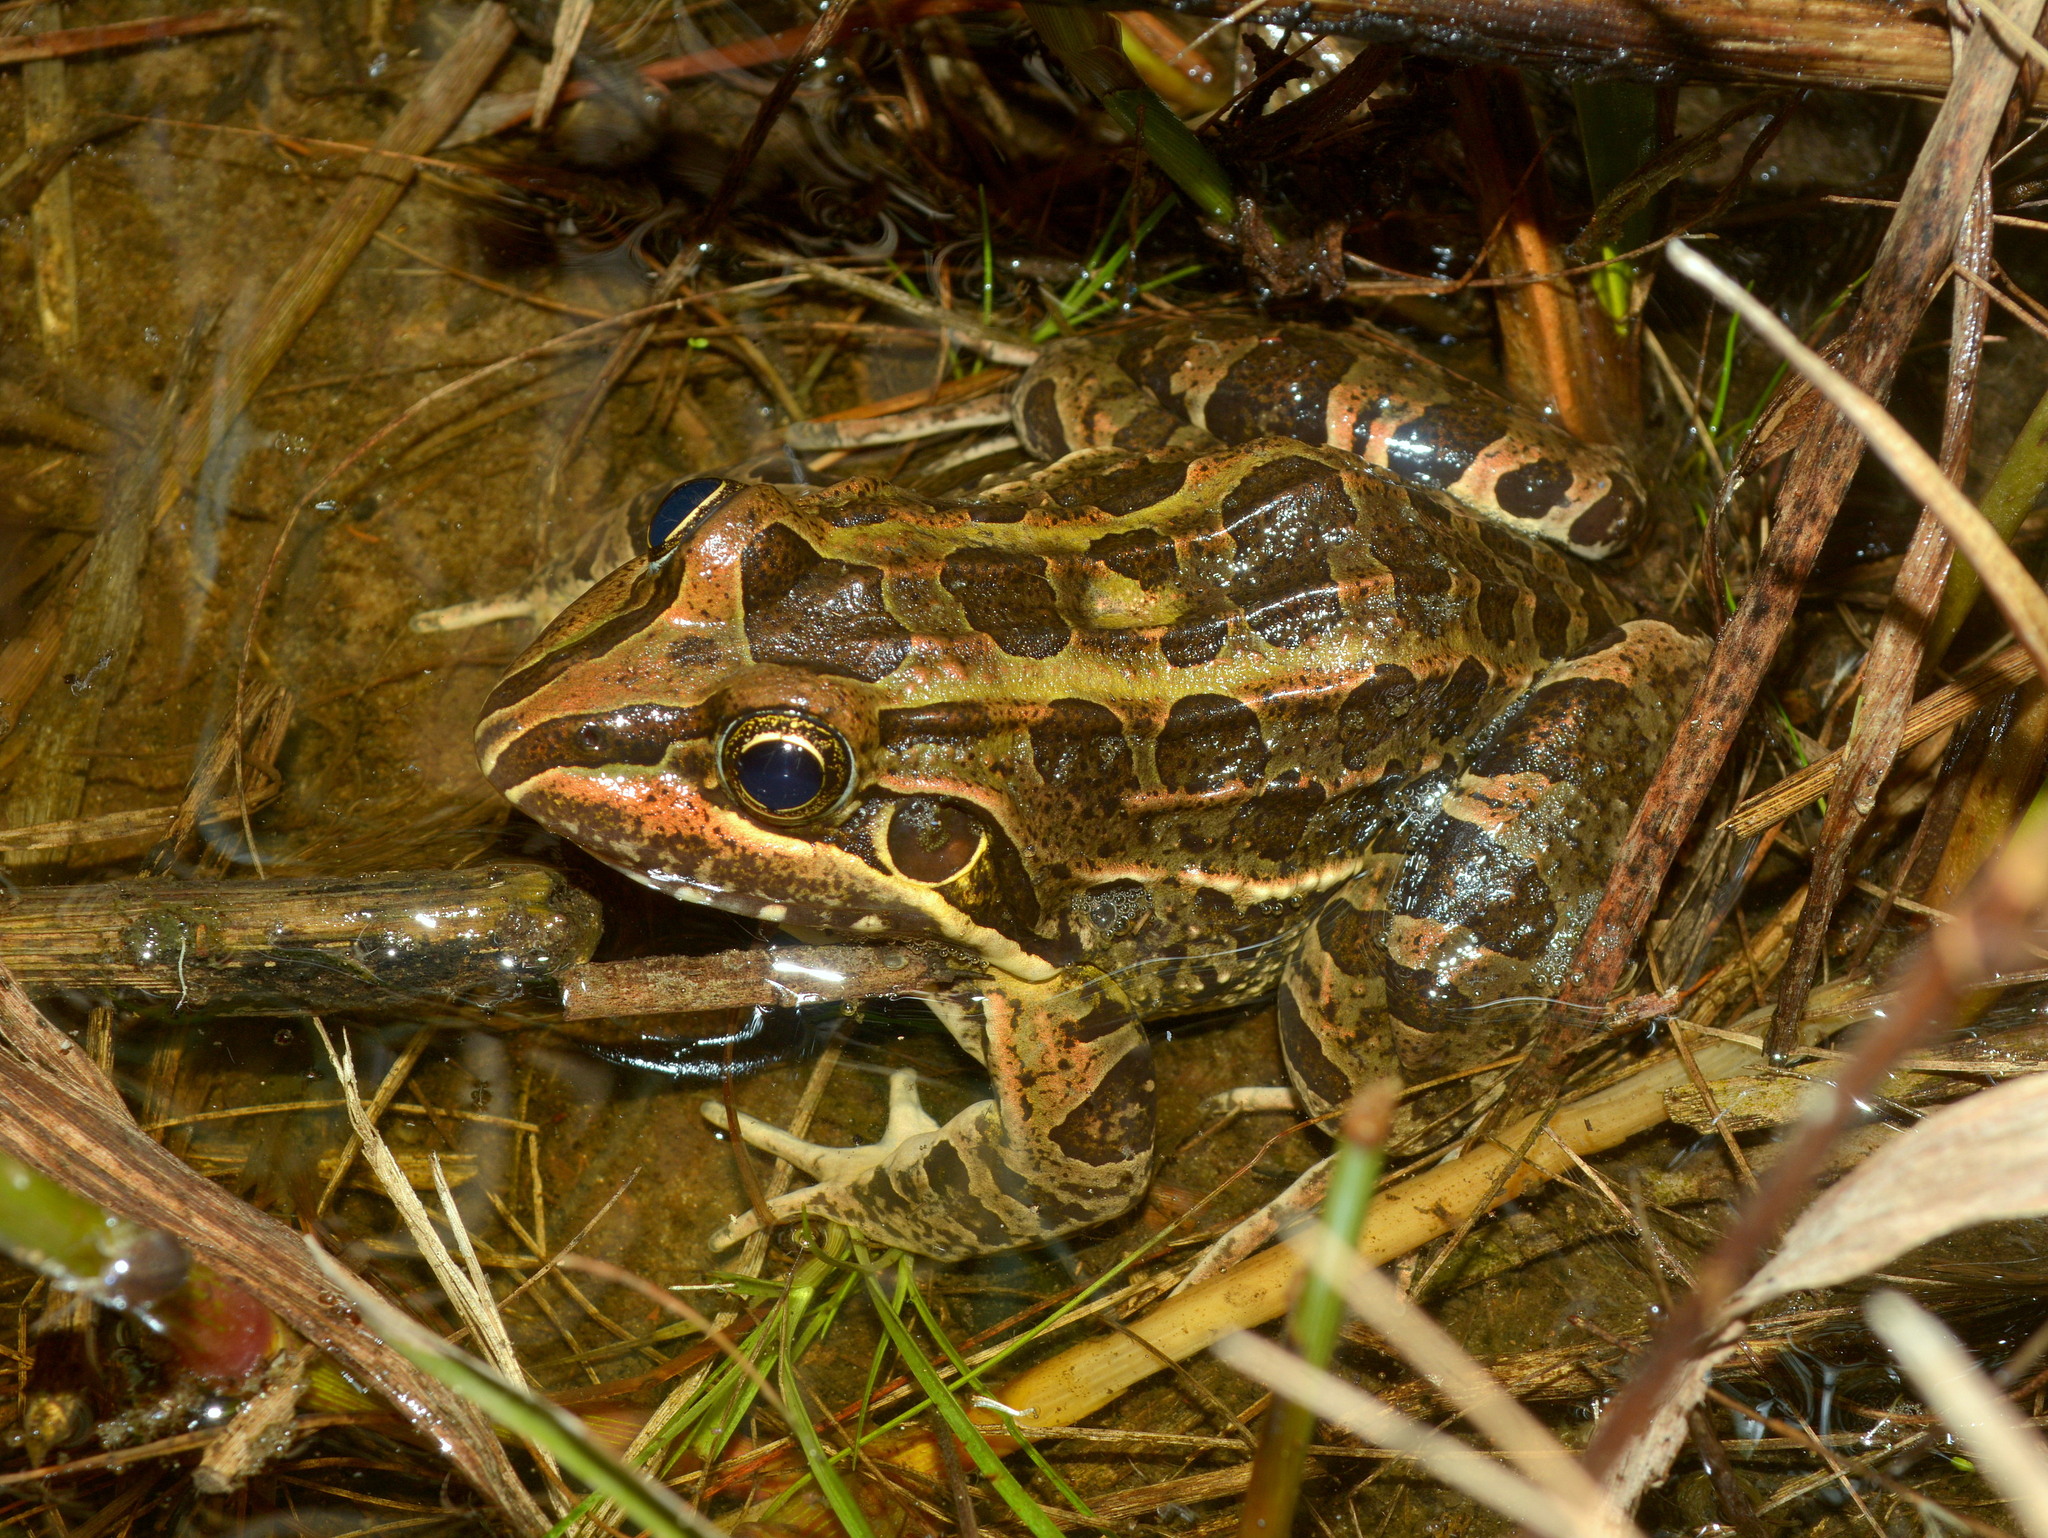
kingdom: Animalia
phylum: Chordata
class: Amphibia
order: Anura
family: Leptodactylidae
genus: Leptodactylus
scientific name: Leptodactylus luctator
